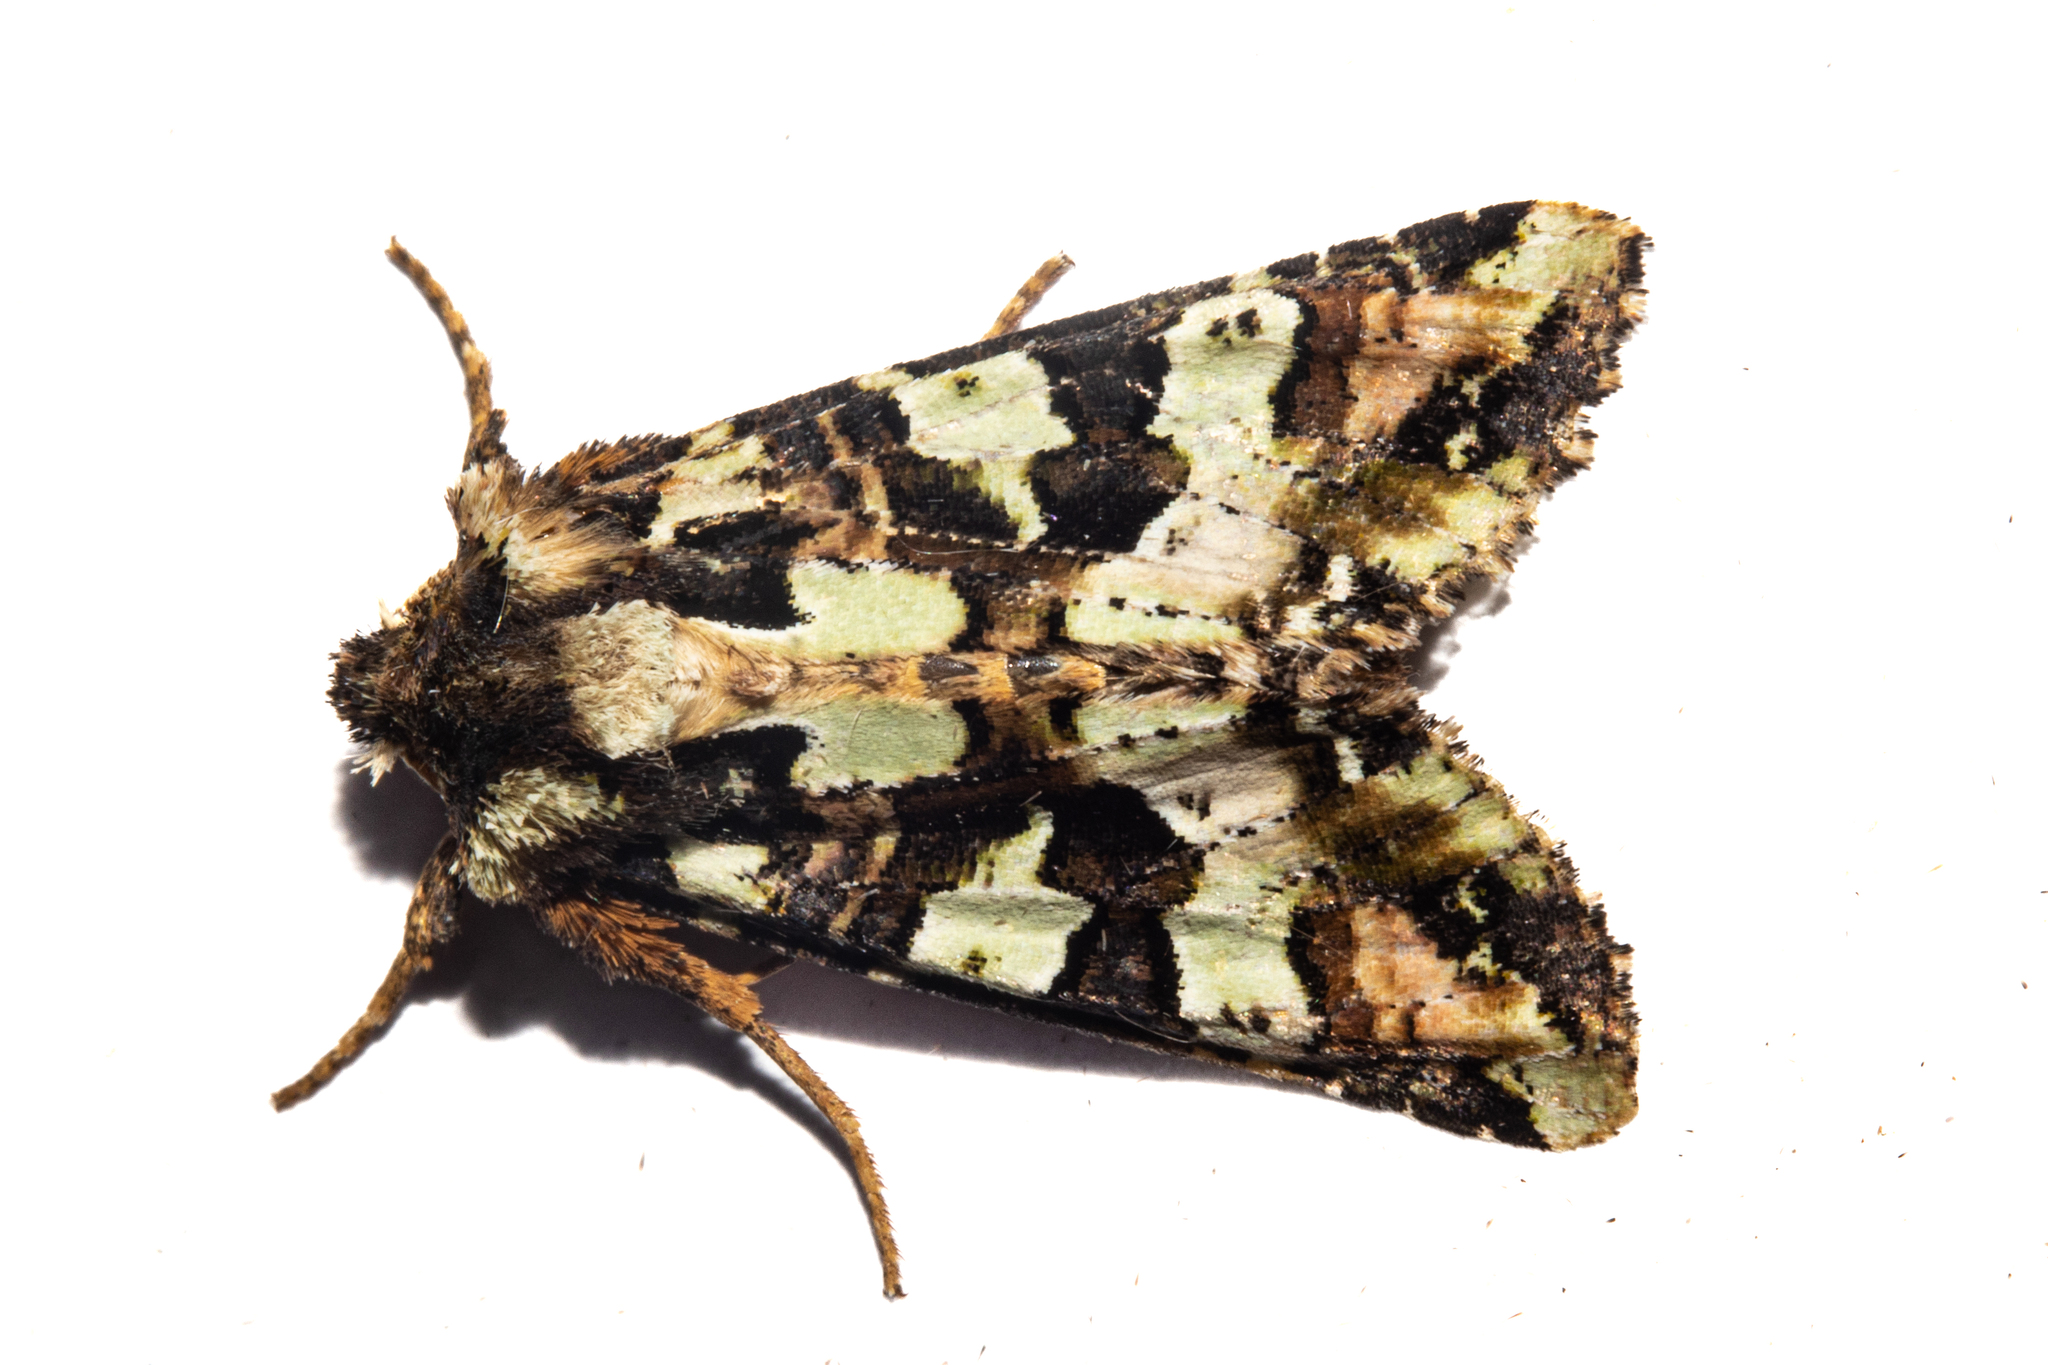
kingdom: Animalia
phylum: Arthropoda
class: Insecta
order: Lepidoptera
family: Noctuidae
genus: Meterana
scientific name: Meterana pauca
